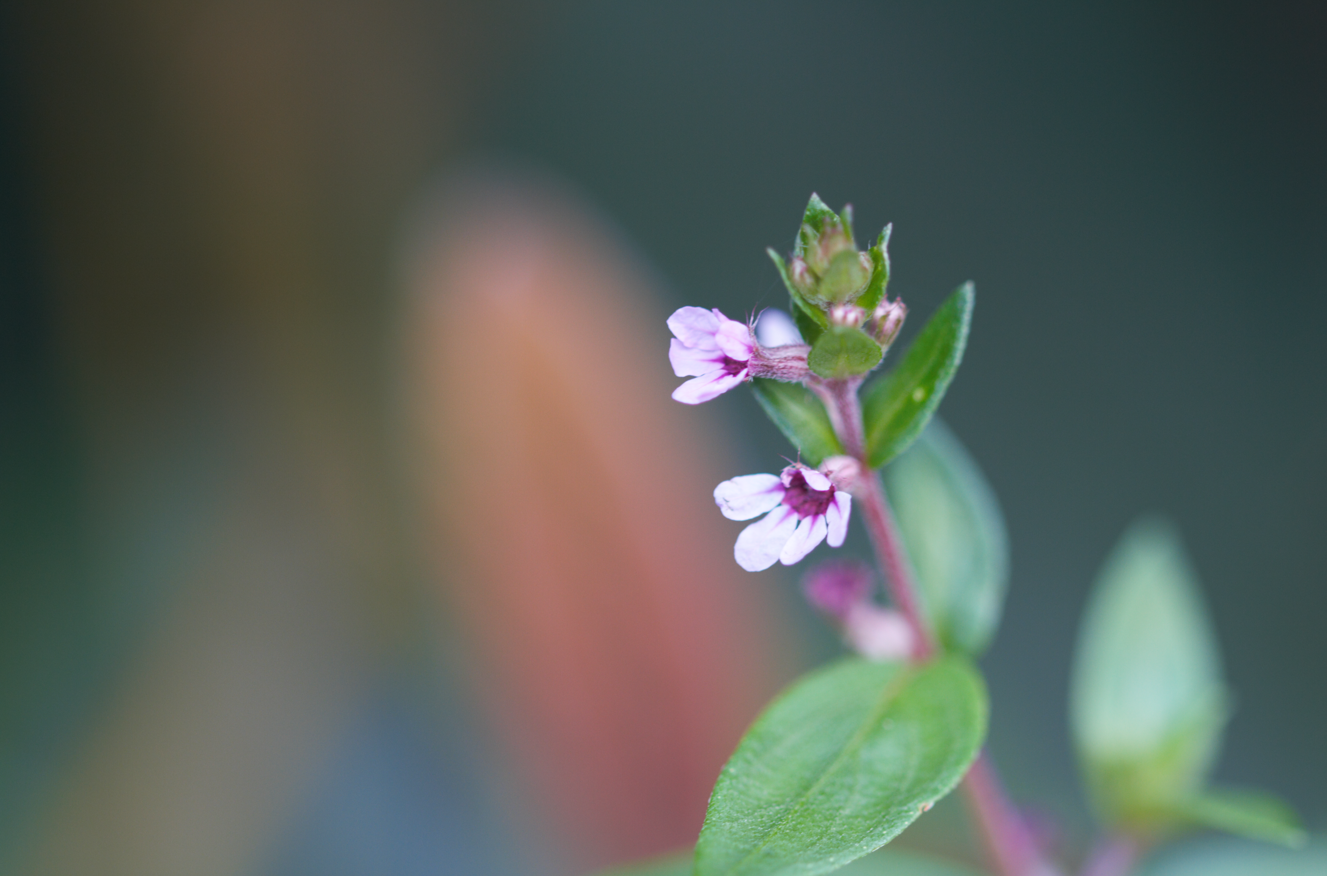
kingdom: Plantae
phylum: Tracheophyta
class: Magnoliopsida
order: Myrtales
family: Lythraceae
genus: Cuphea
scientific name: Cuphea blackii
